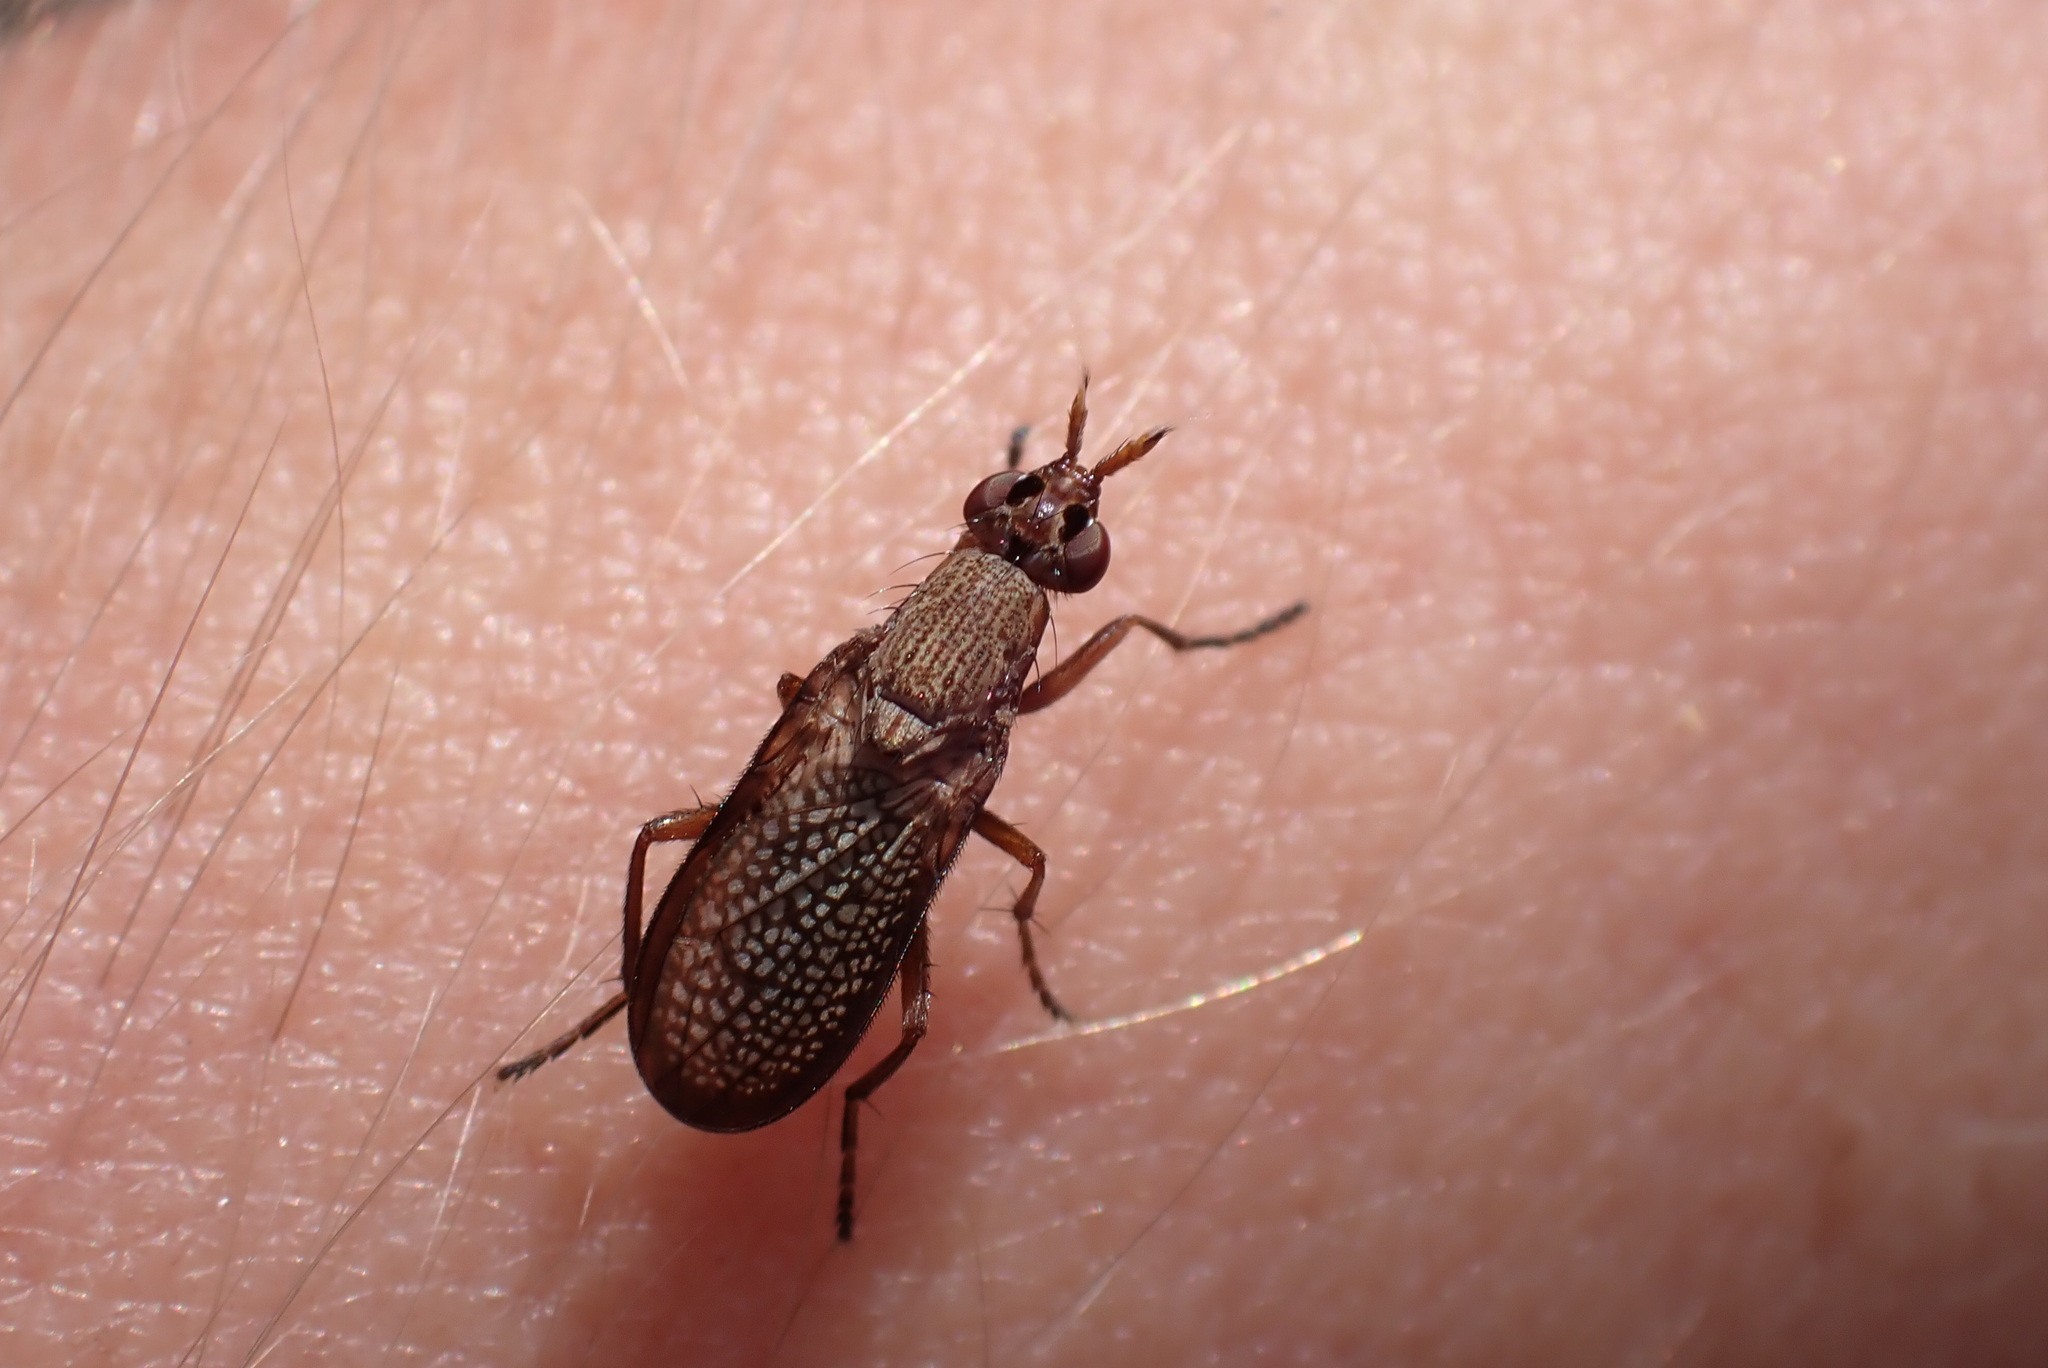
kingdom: Animalia
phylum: Arthropoda
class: Insecta
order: Diptera
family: Sciomyzidae
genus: Coremacera
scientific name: Coremacera marginata
